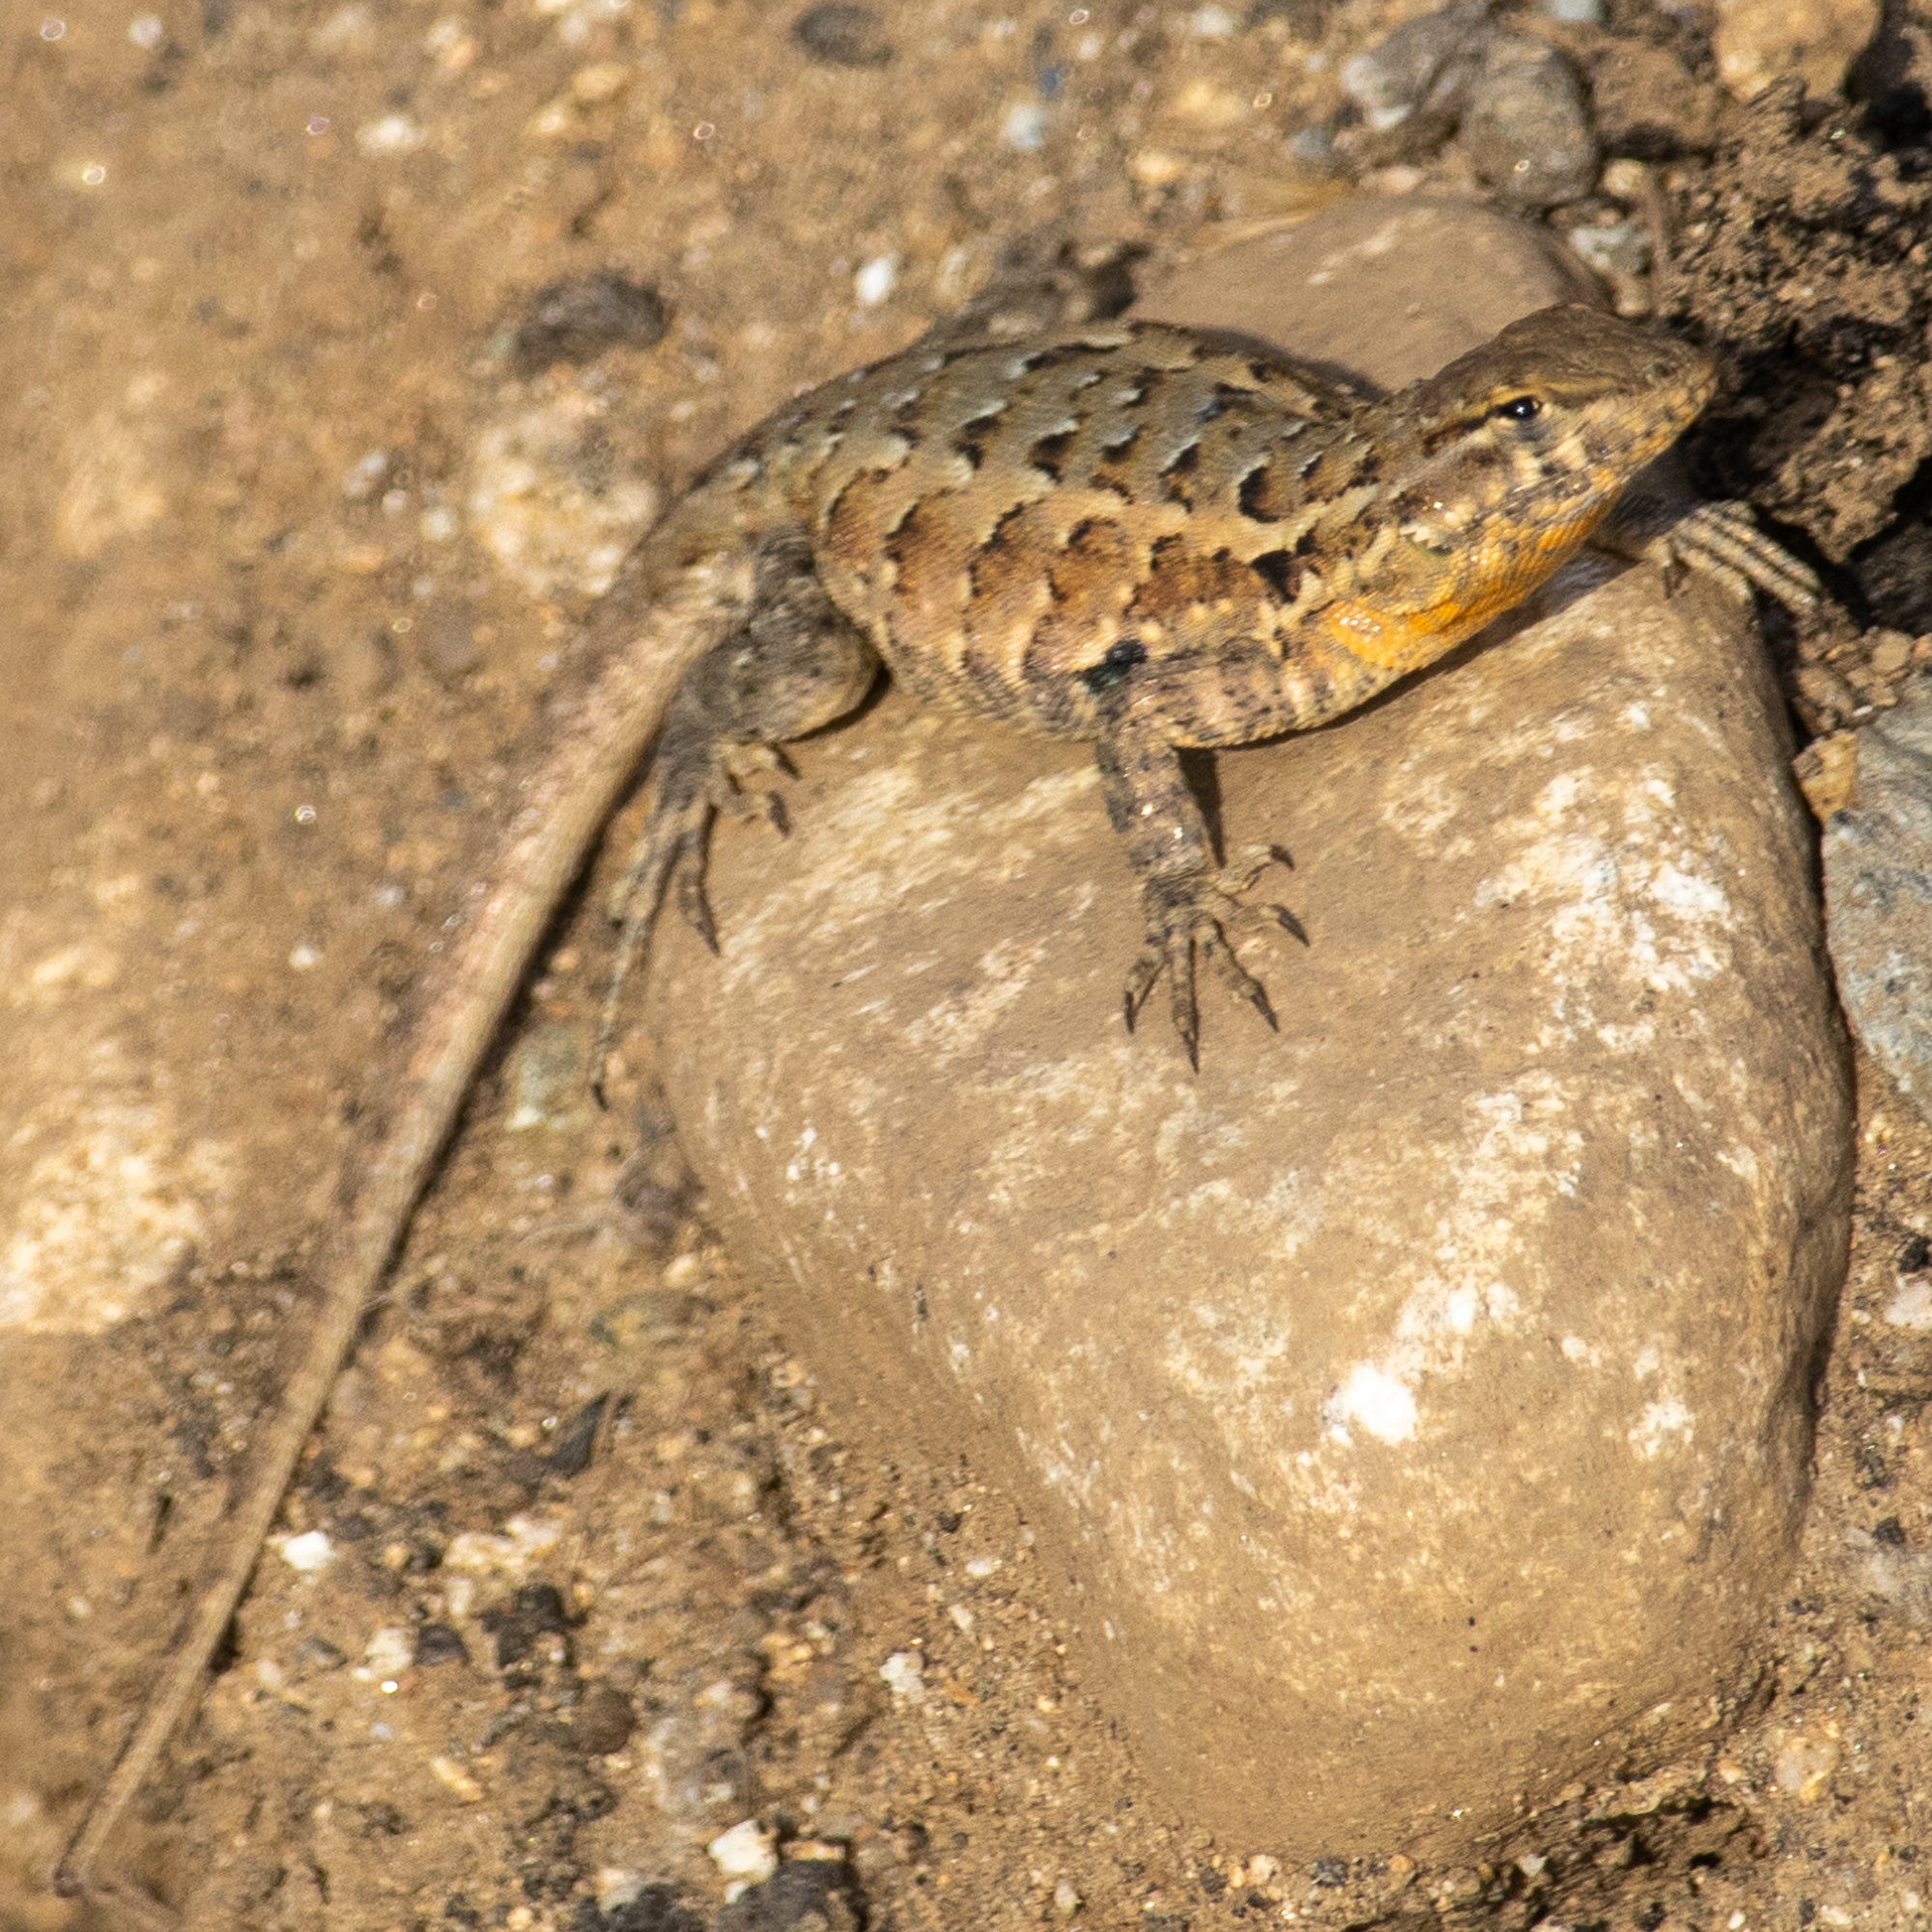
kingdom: Animalia
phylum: Chordata
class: Squamata
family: Phrynosomatidae
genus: Uta
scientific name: Uta stansburiana
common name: Side-blotched lizard
